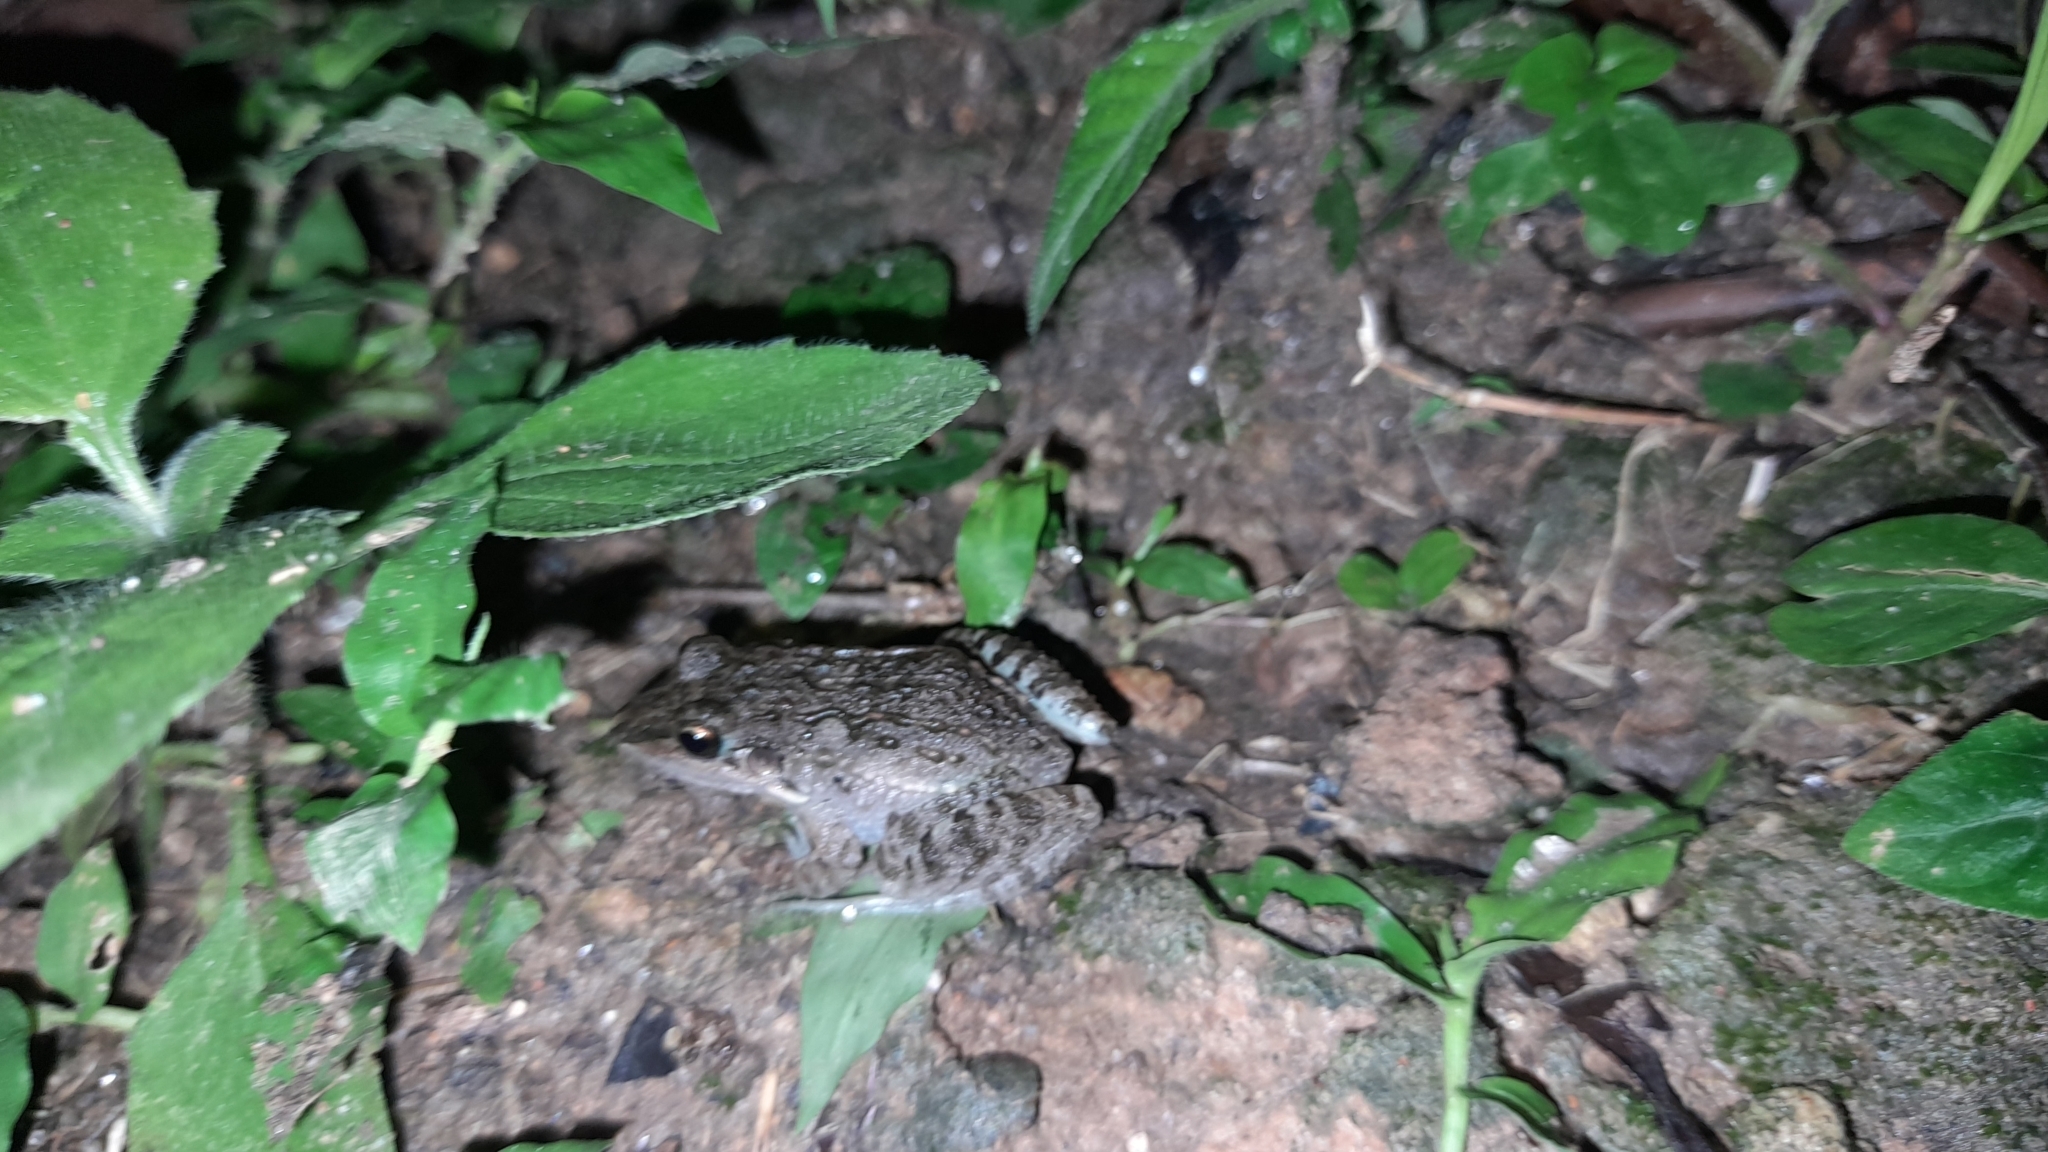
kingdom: Animalia
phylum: Chordata
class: Amphibia
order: Anura
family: Leptodactylidae
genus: Leptodactylus
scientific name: Leptodactylus fragilis
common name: Mexican white-lipped frog
